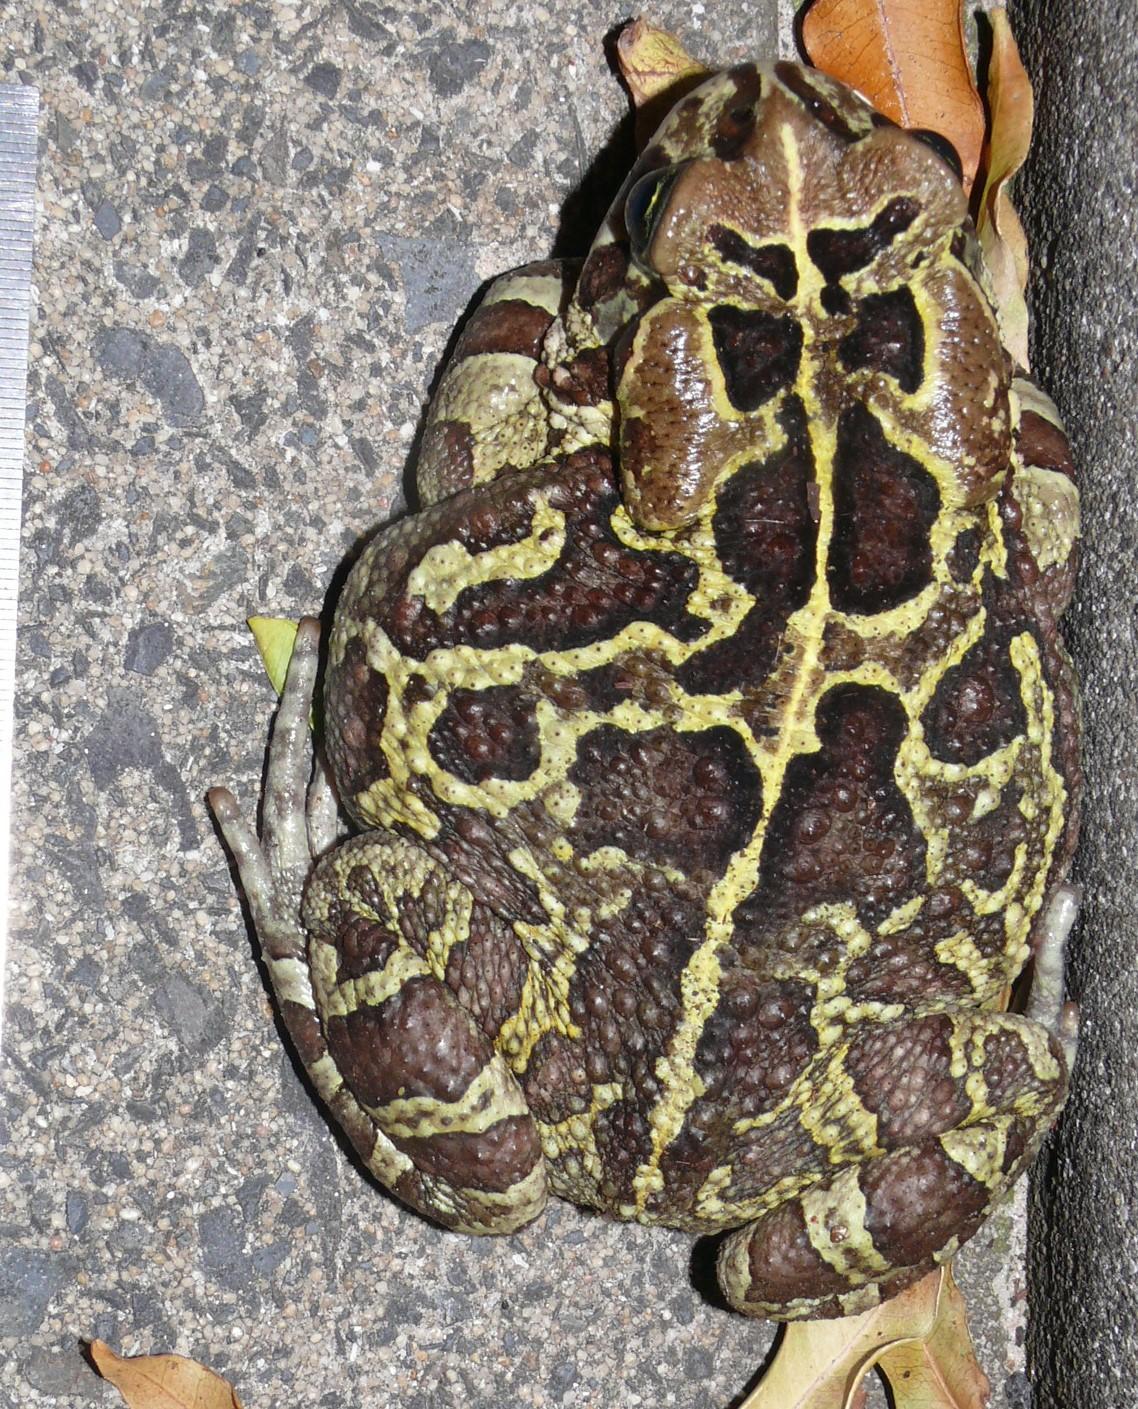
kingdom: Animalia
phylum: Chordata
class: Amphibia
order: Anura
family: Bufonidae
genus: Sclerophrys
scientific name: Sclerophrys pantherina
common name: Panther toad
